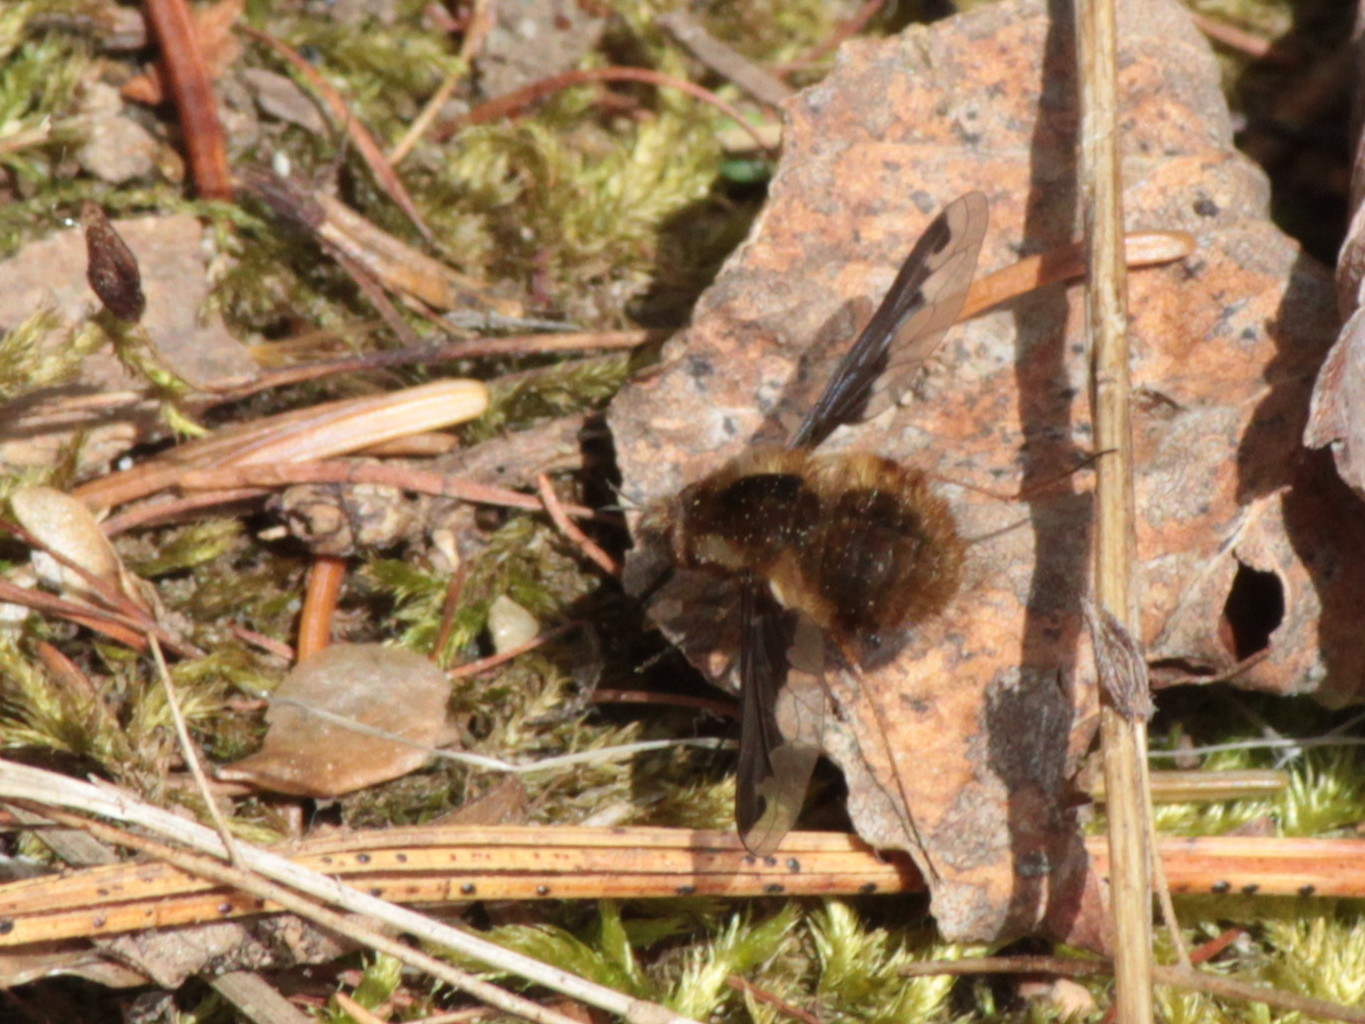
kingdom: Animalia
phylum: Arthropoda
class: Insecta
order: Diptera
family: Bombyliidae
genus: Bombylius
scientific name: Bombylius major
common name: Bee fly
